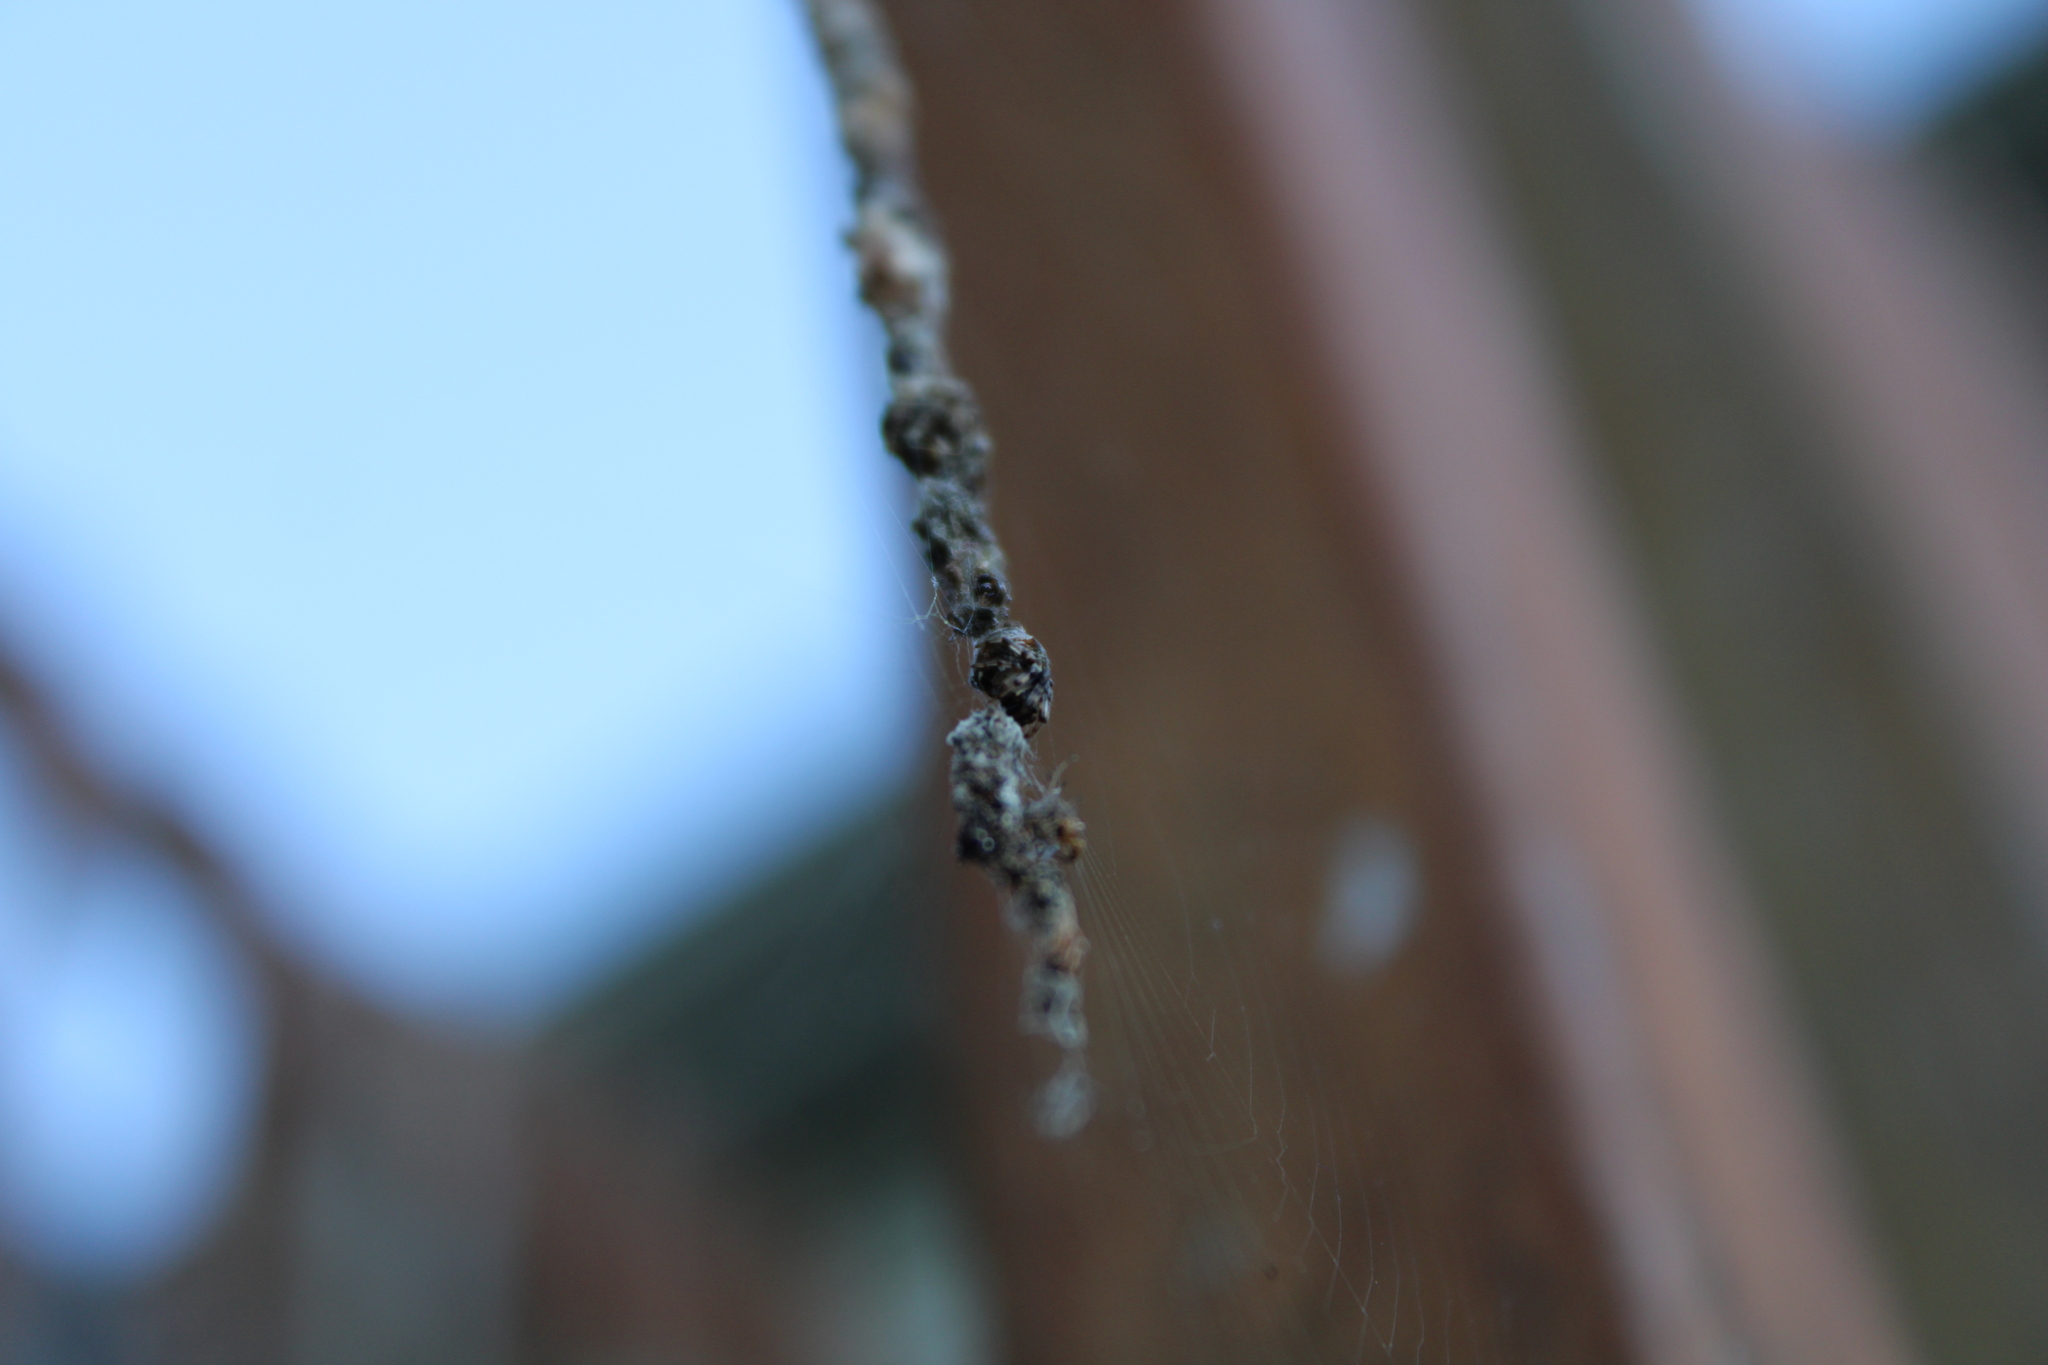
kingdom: Animalia
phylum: Arthropoda
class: Arachnida
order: Araneae
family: Araneidae
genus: Cyclosa
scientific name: Cyclosa turbinata
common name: Orb weavers
